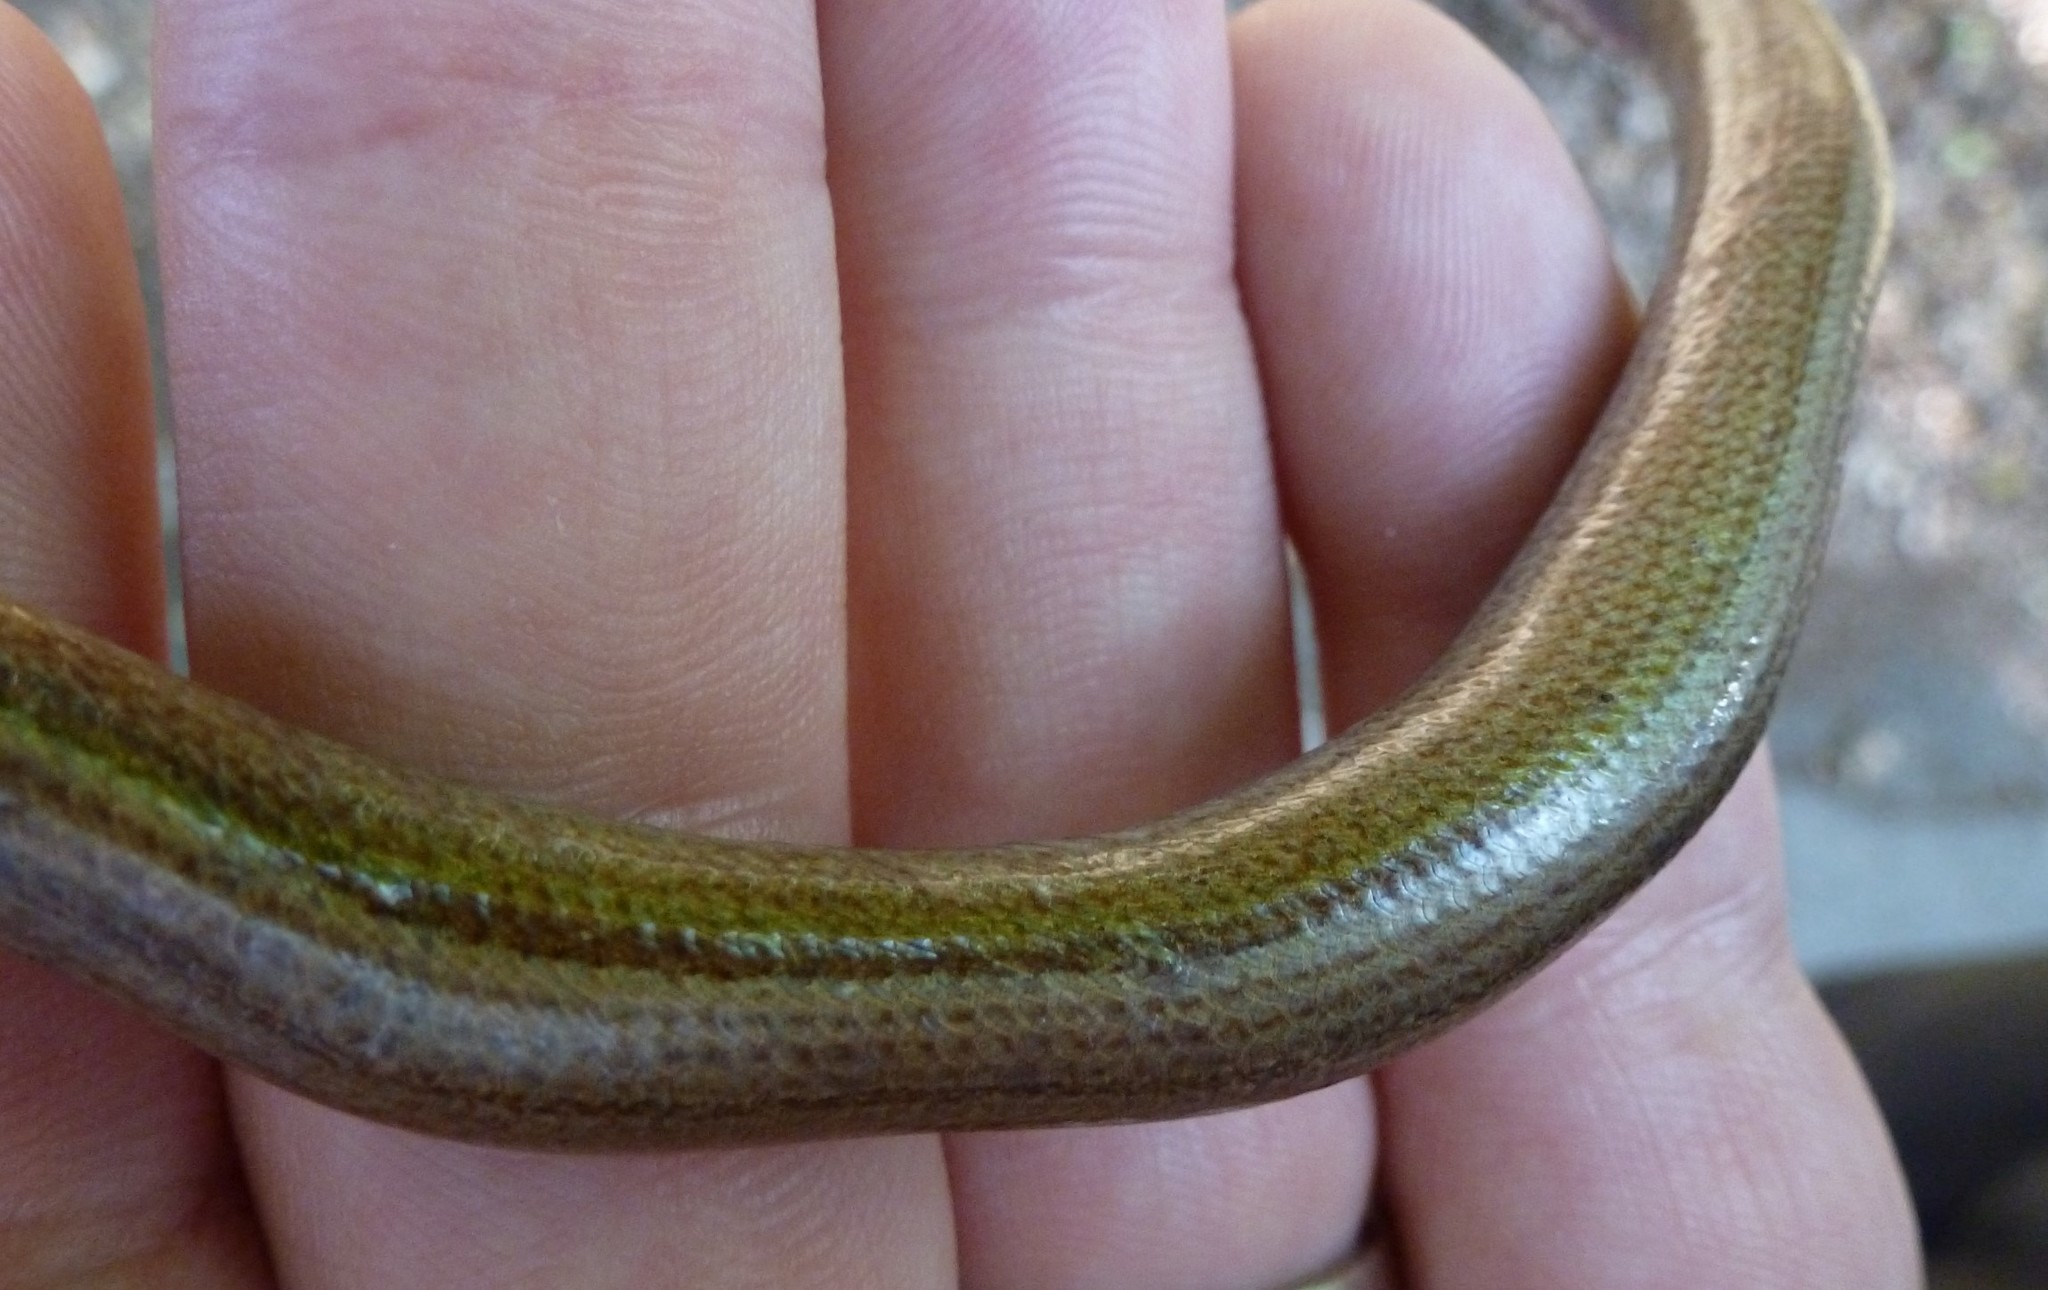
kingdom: Animalia
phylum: Chordata
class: Squamata
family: Anguidae
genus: Anguis
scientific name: Anguis veronensis
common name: Italian slow worm
